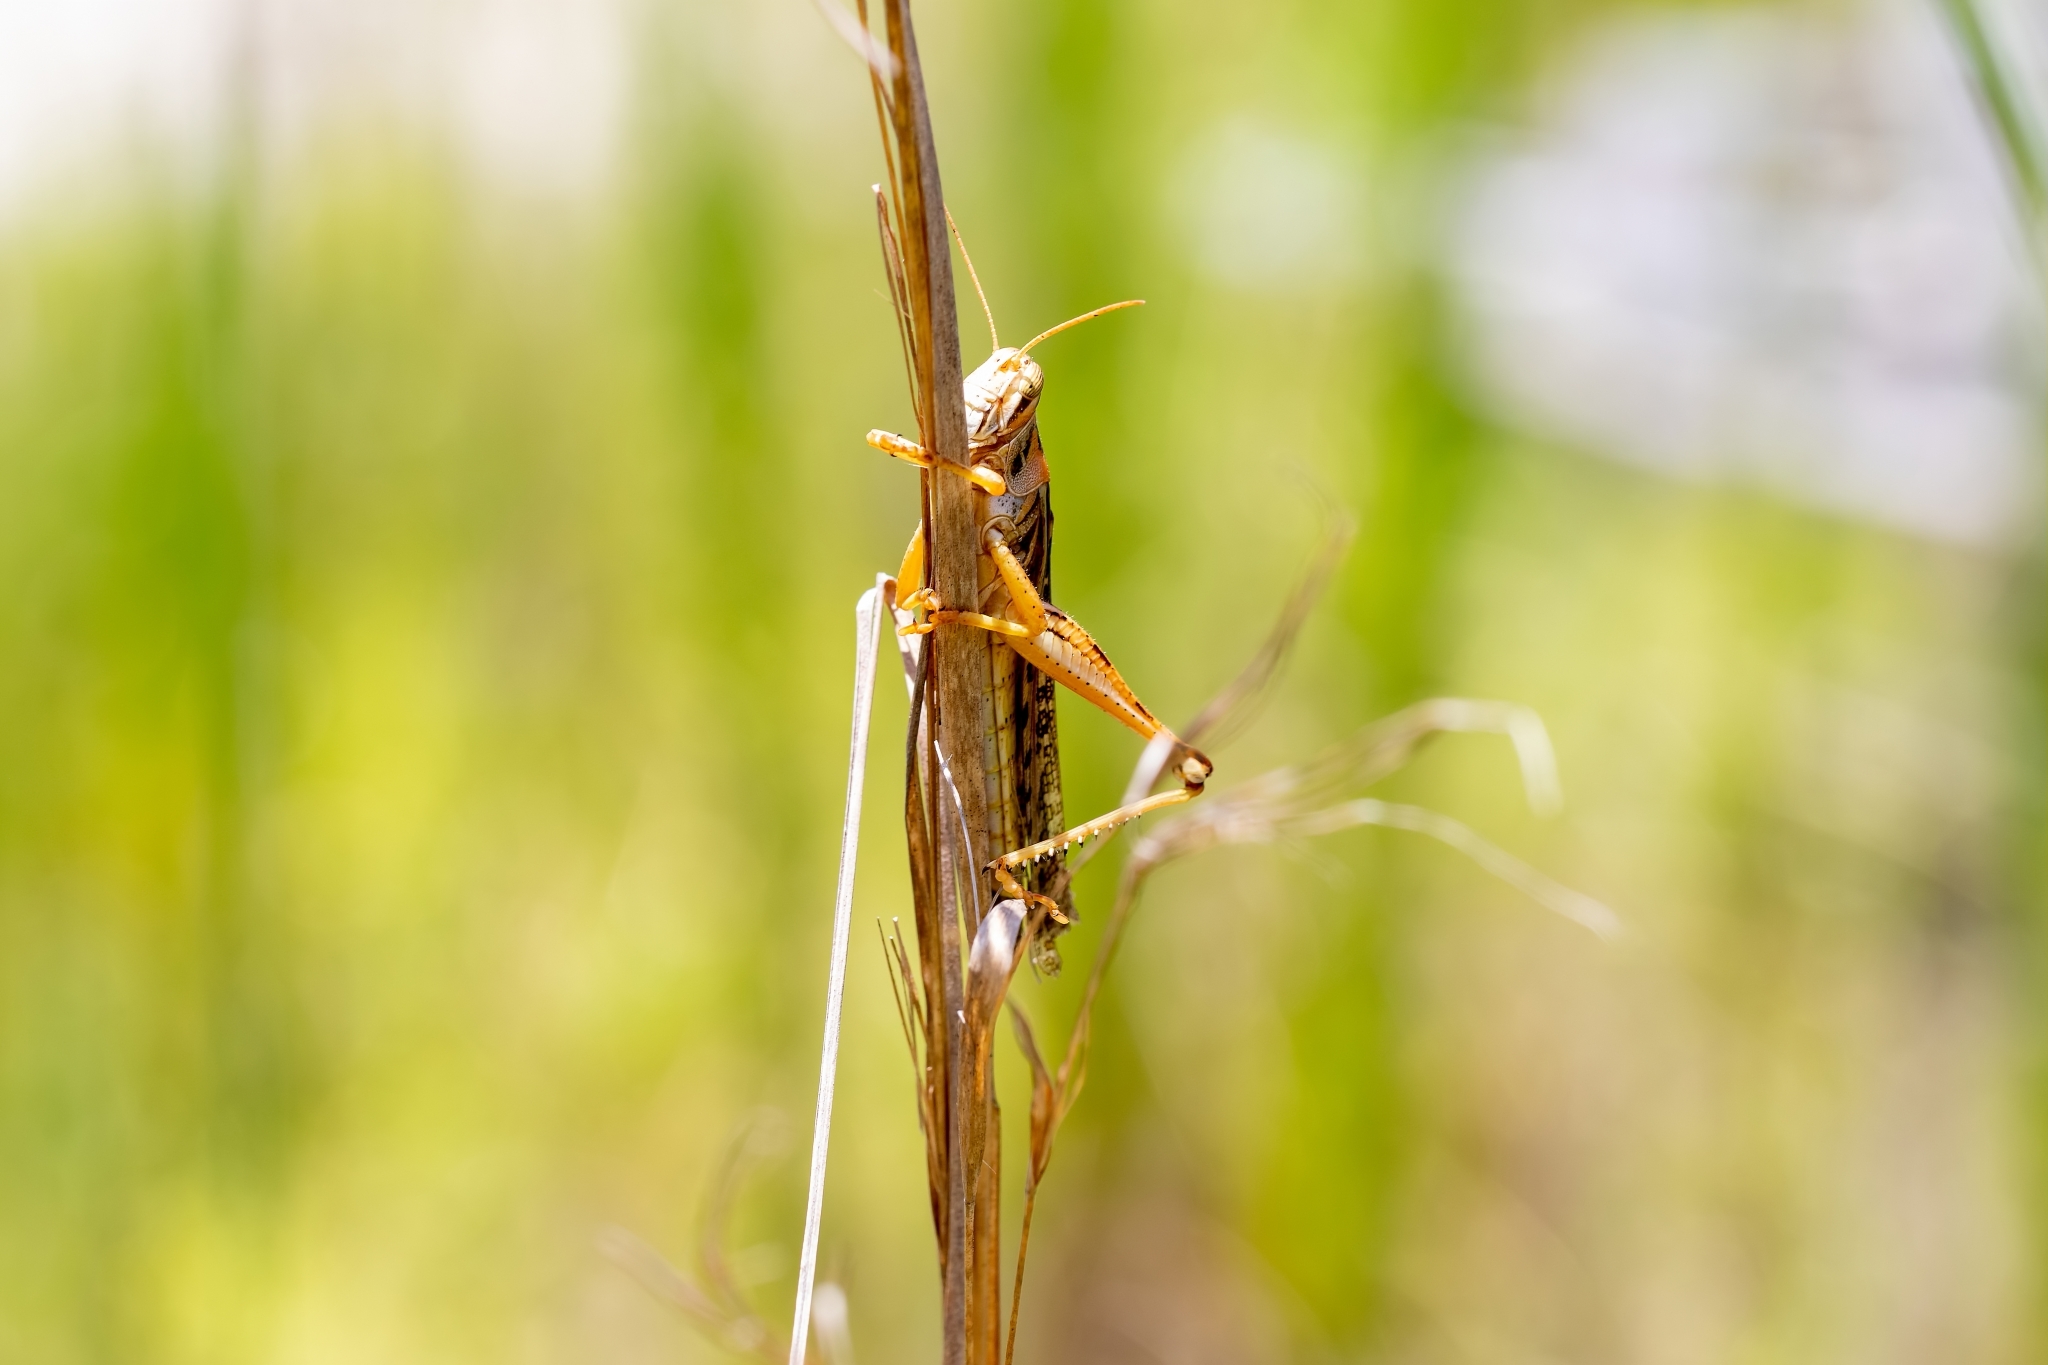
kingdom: Animalia
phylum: Arthropoda
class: Insecta
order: Orthoptera
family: Acrididae
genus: Schistocerca
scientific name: Schistocerca americana
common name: American bird locust
